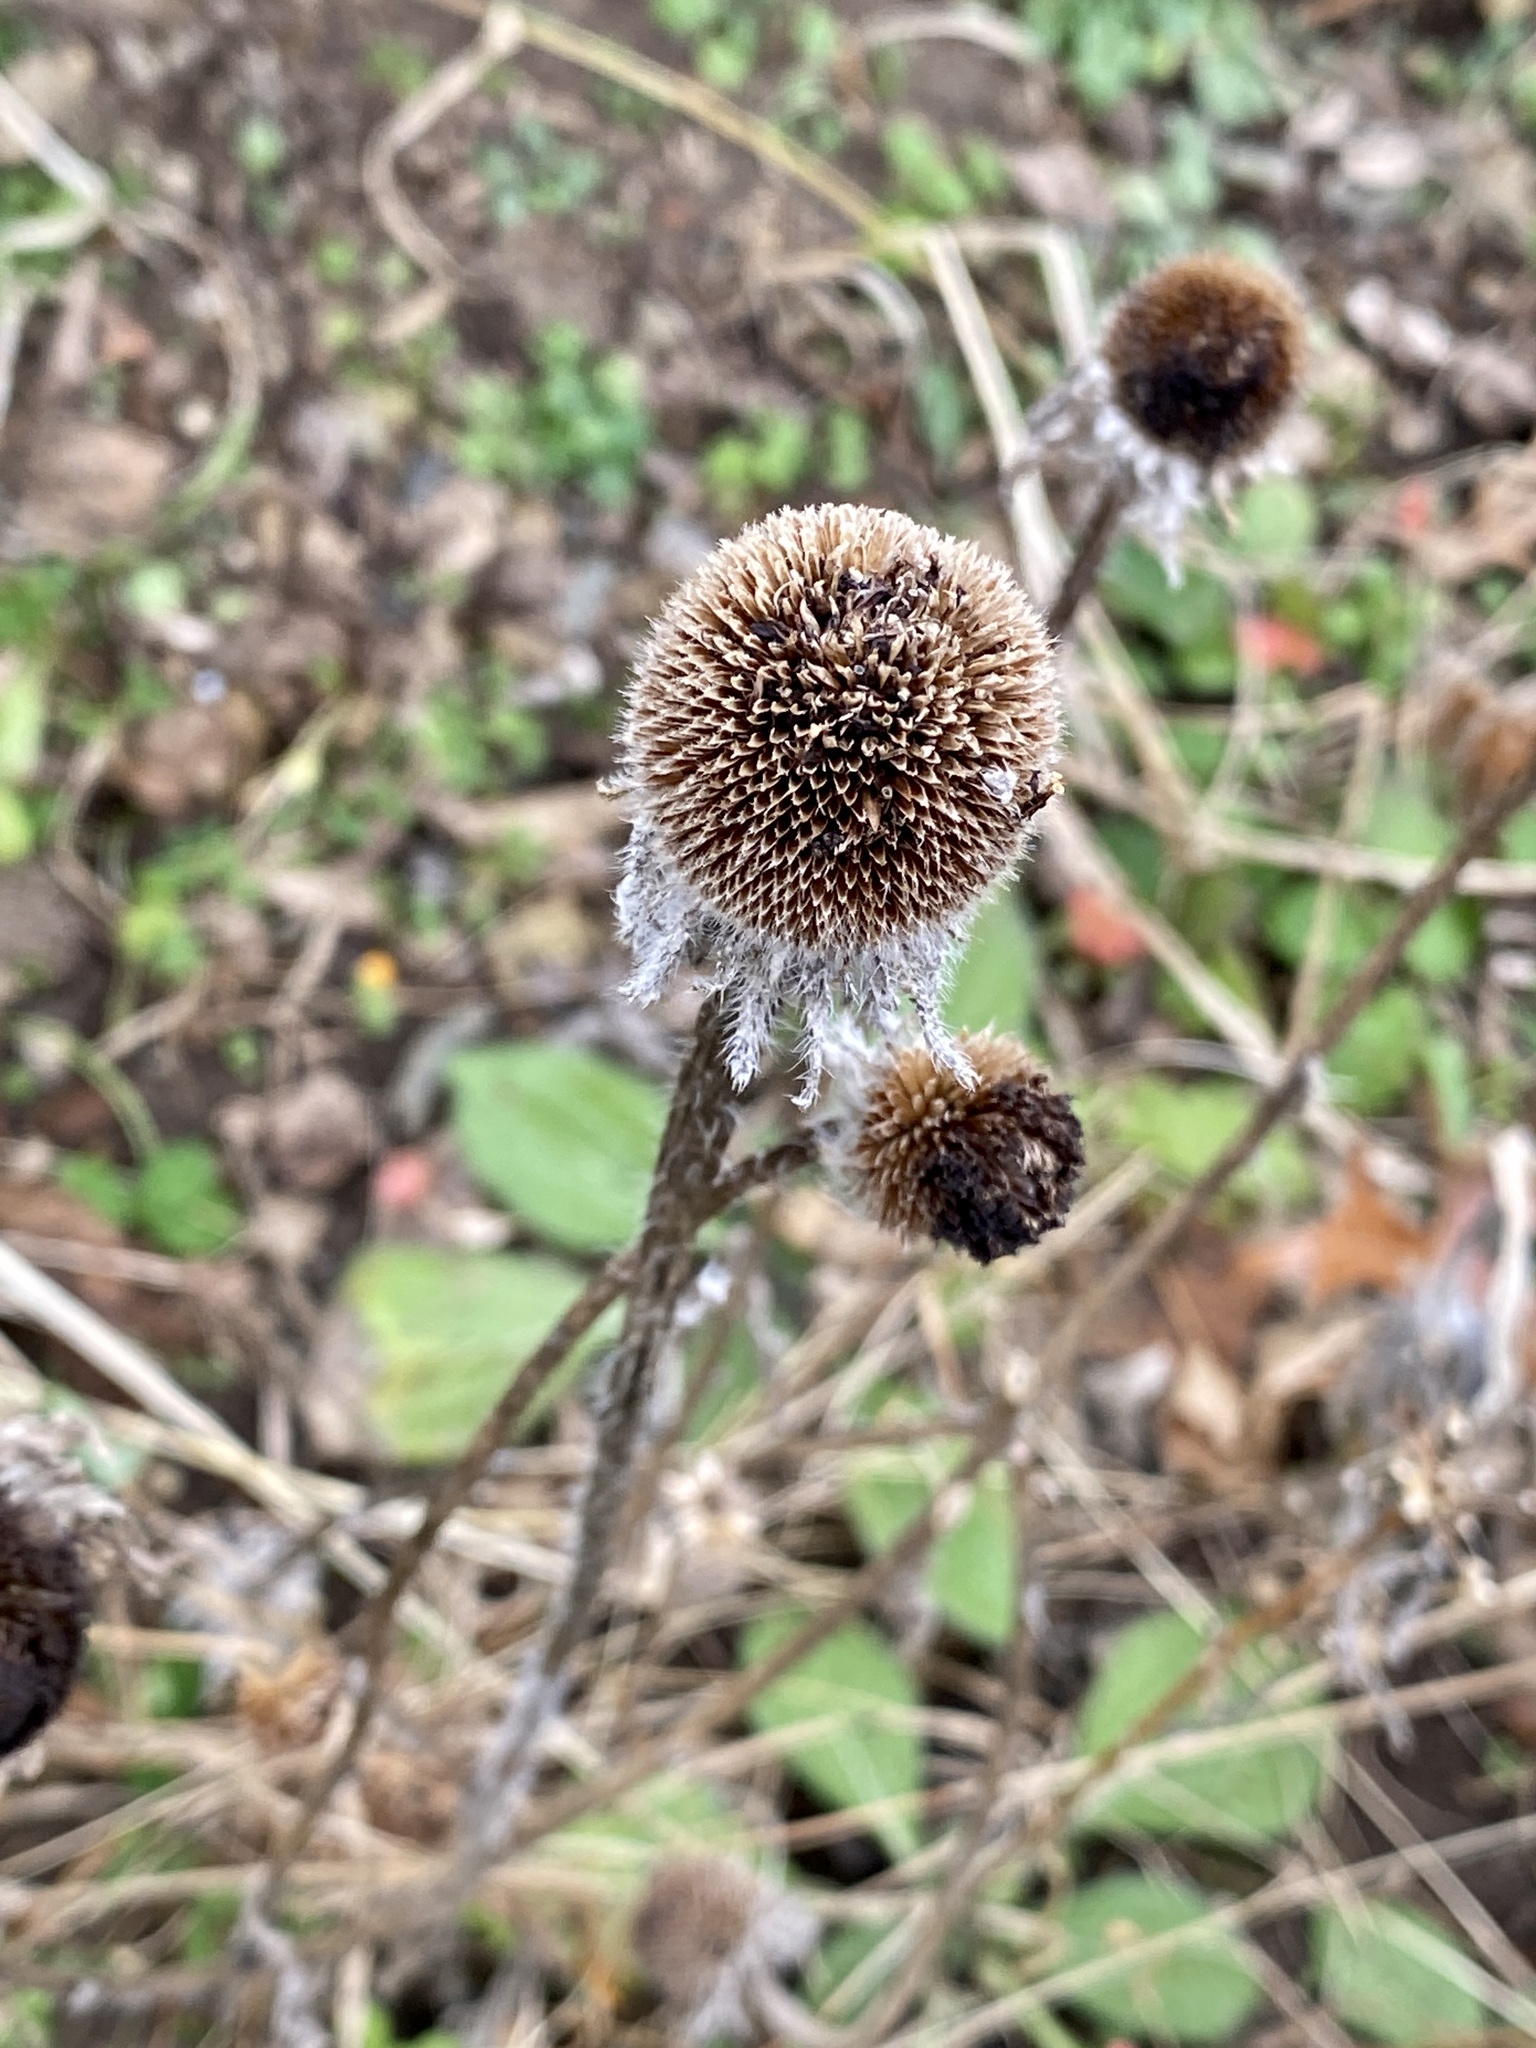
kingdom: Plantae
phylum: Tracheophyta
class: Magnoliopsida
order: Asterales
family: Asteraceae
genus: Rudbeckia
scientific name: Rudbeckia hirta
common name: Black-eyed-susan
